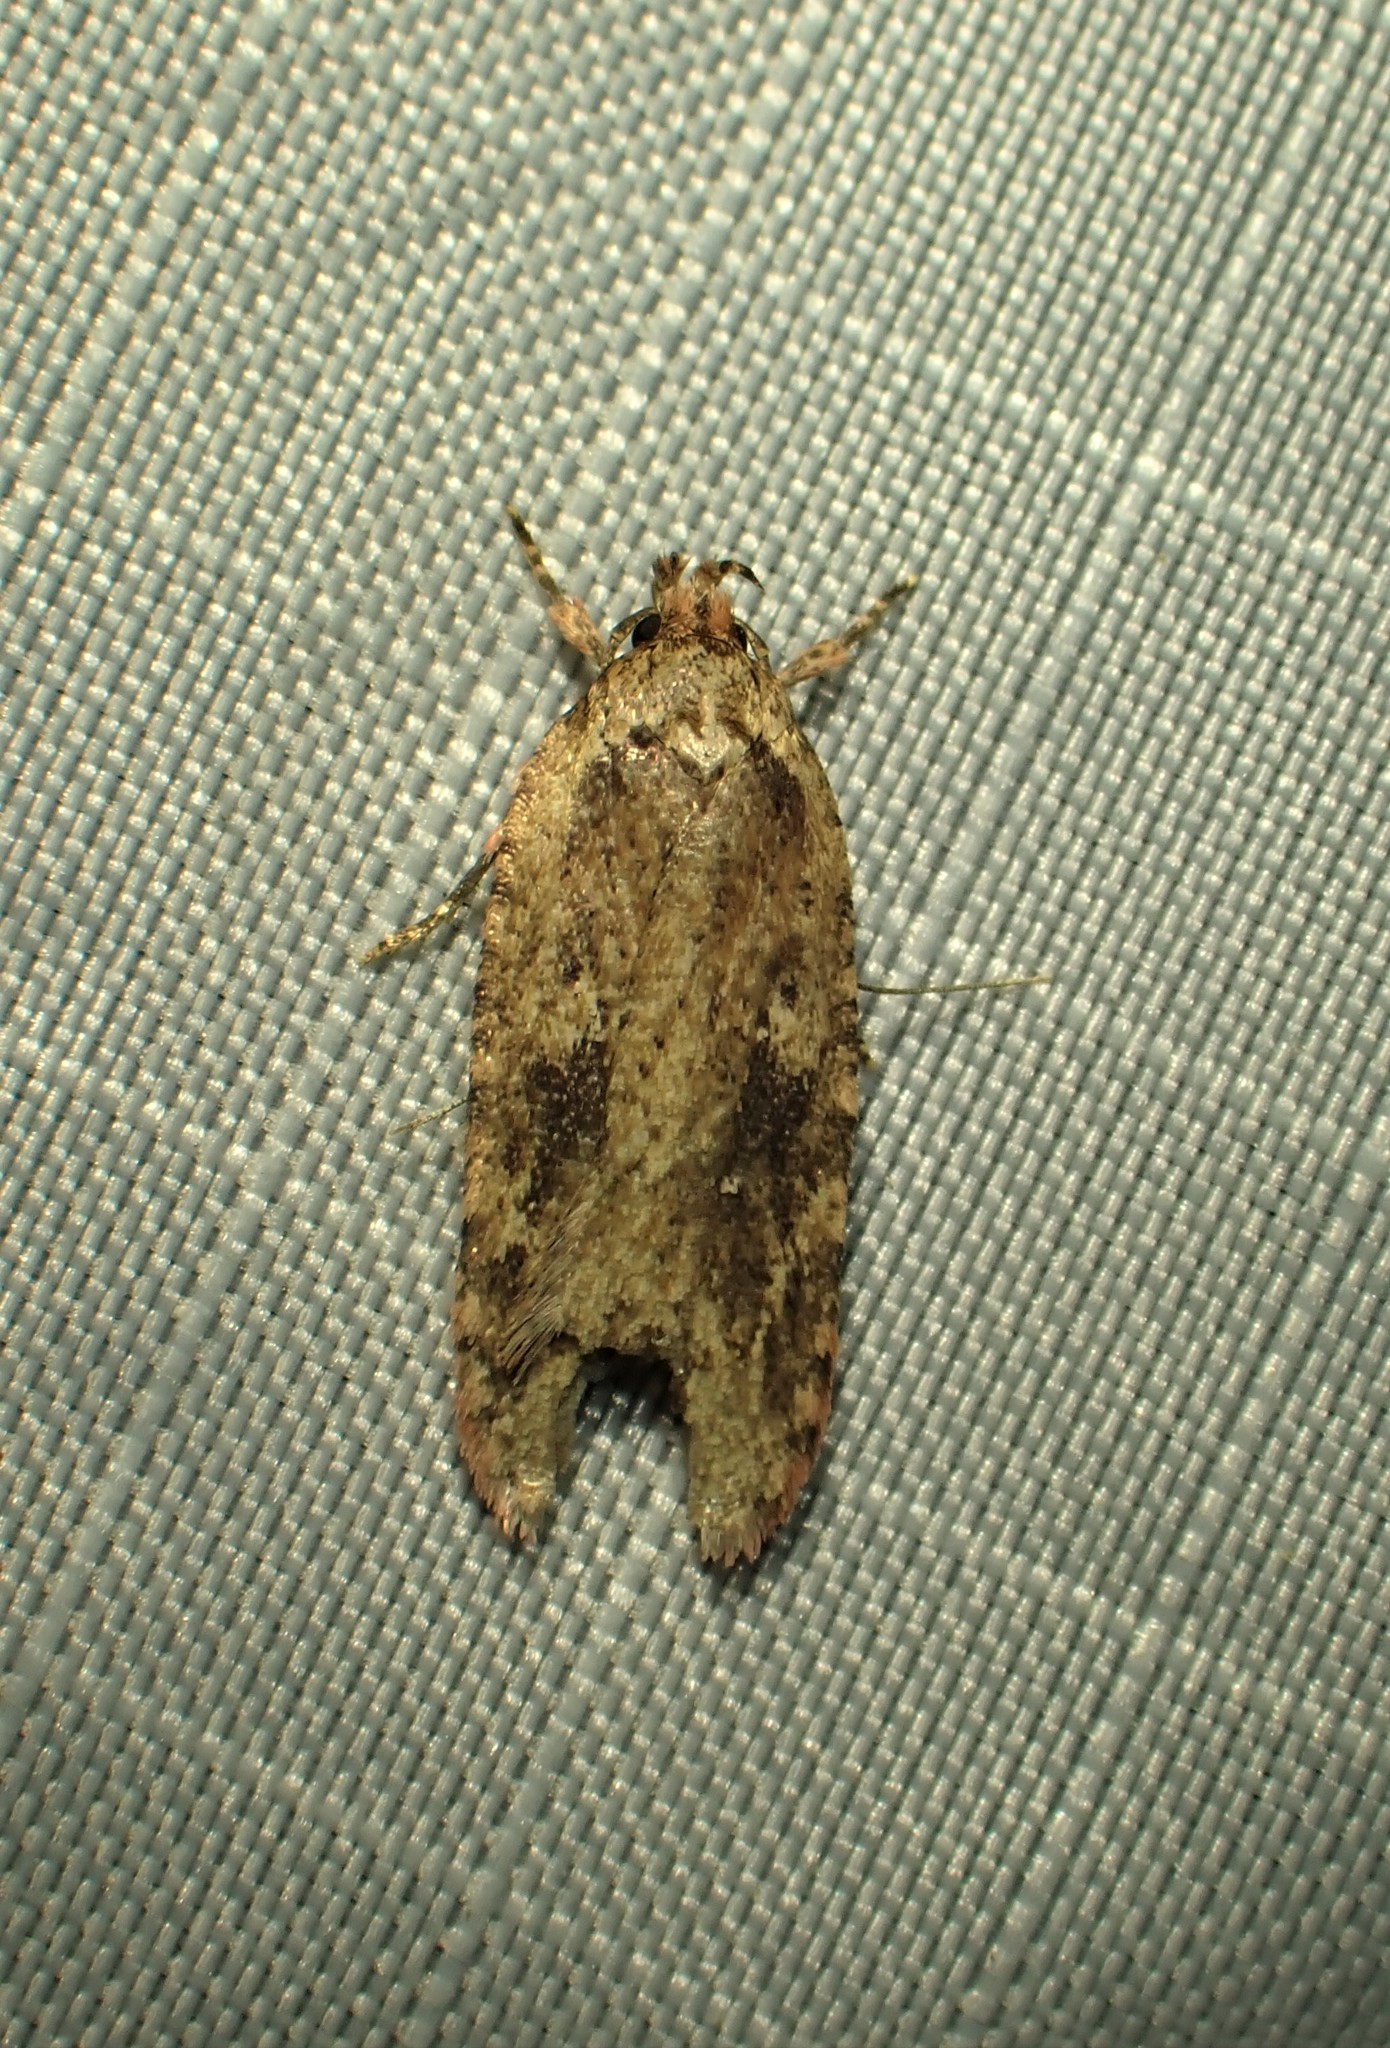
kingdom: Animalia
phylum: Arthropoda
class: Insecta
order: Lepidoptera
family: Depressariidae
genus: Agonopterix
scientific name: Agonopterix pulvipennella
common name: Goldenrod leafffolder
